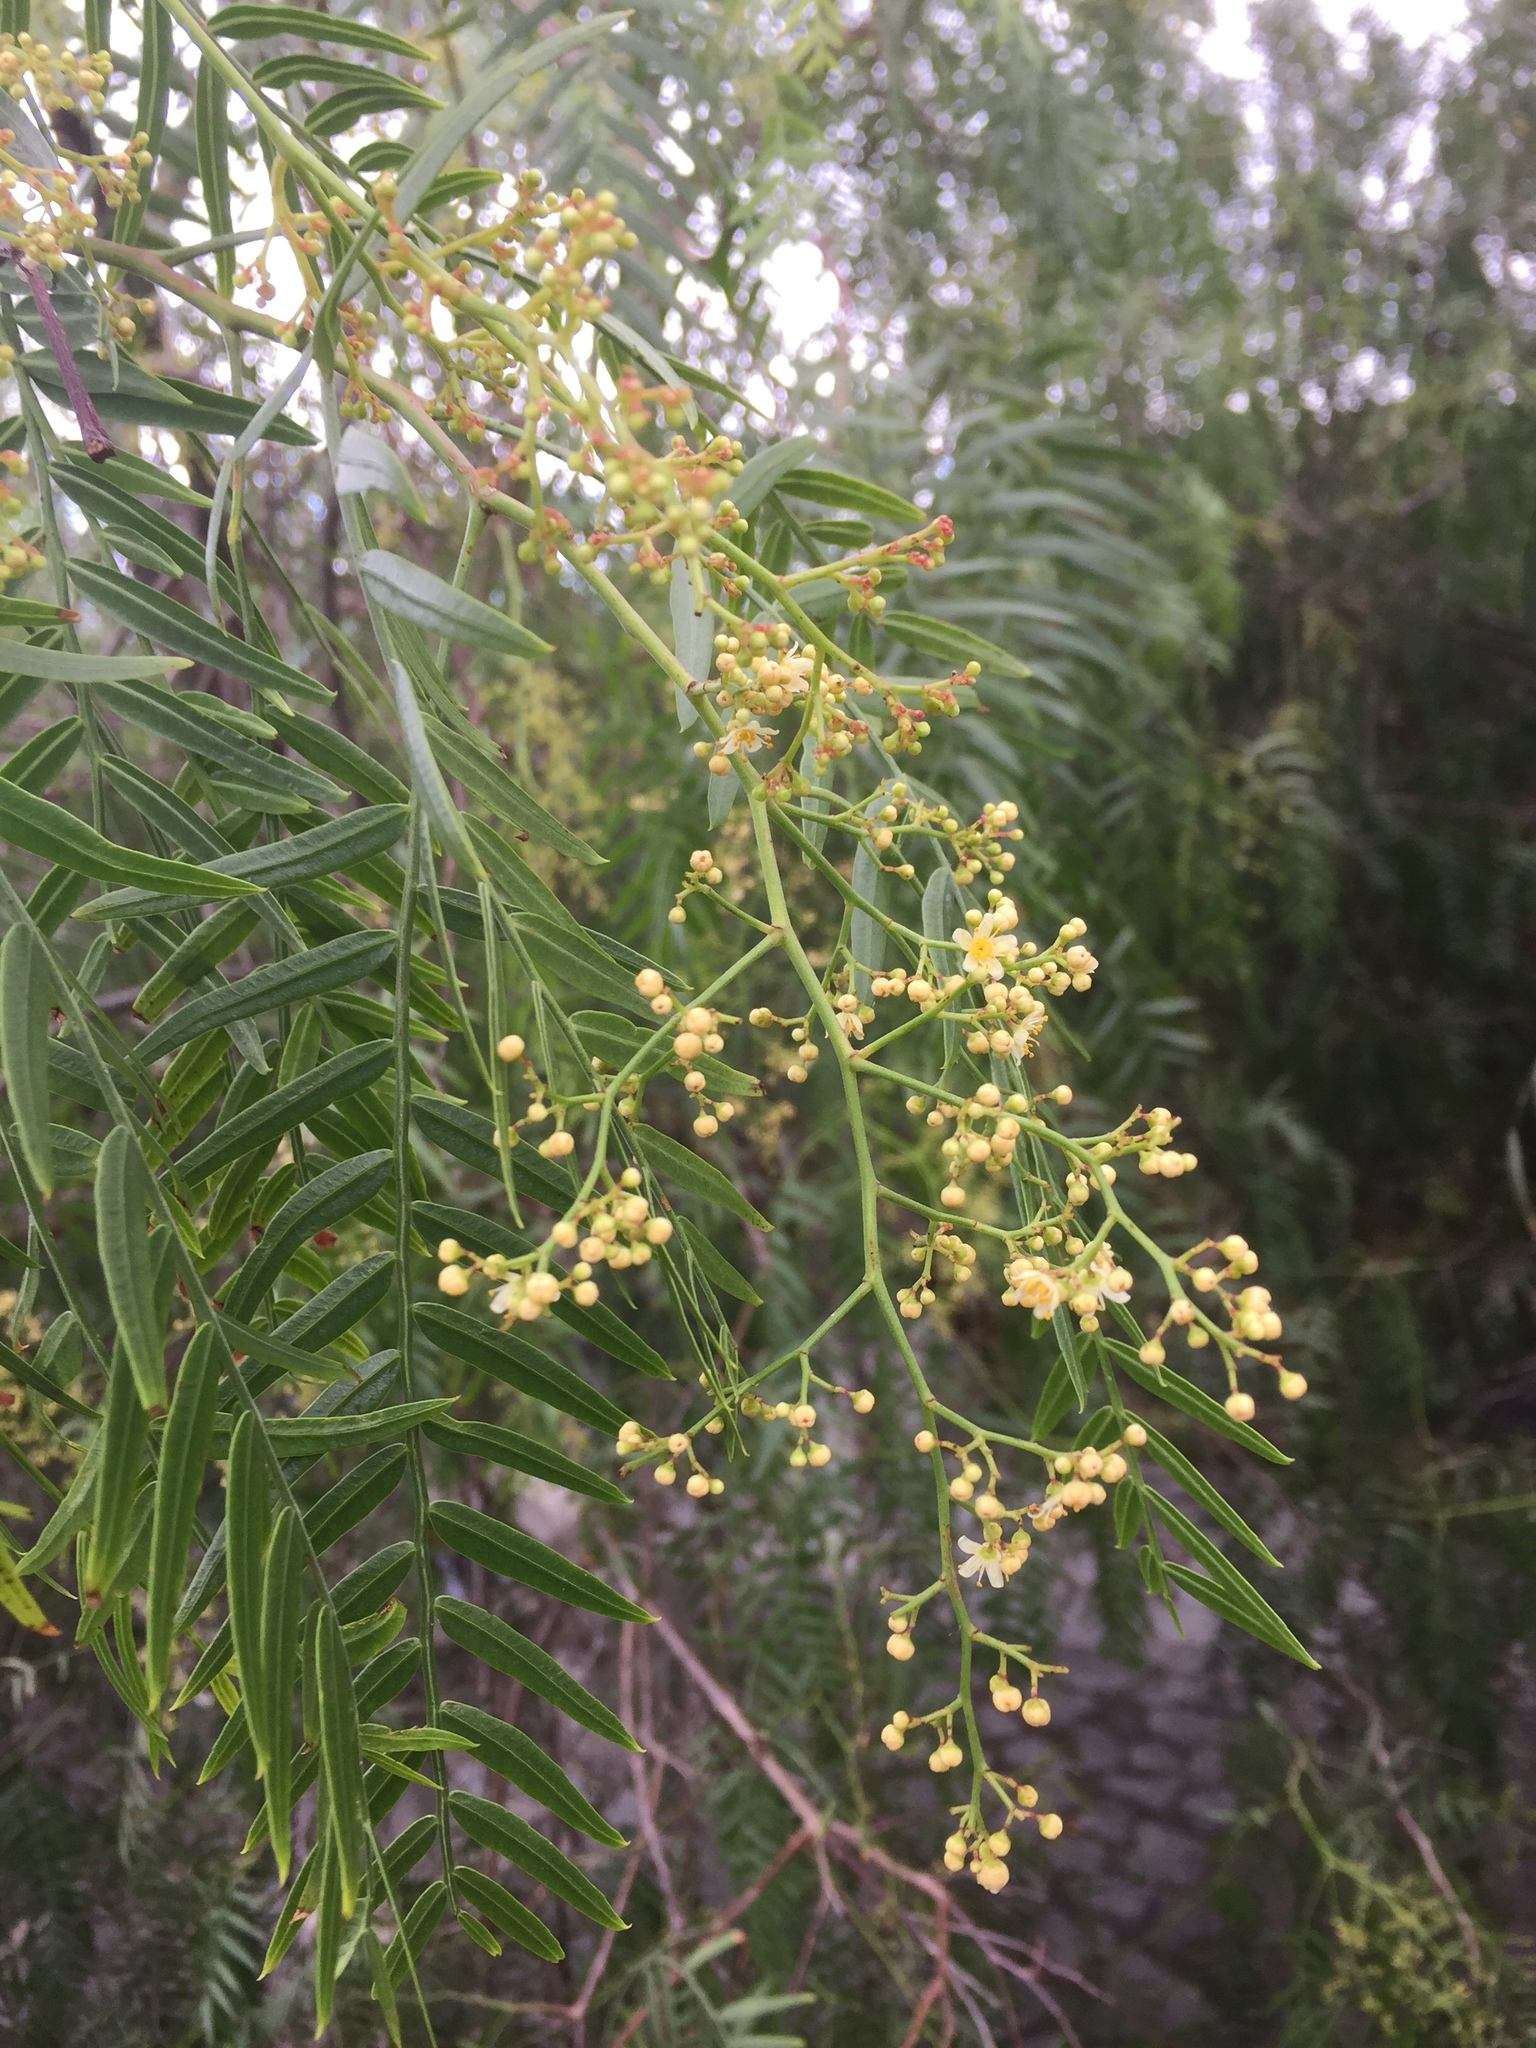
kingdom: Plantae
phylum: Tracheophyta
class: Magnoliopsida
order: Sapindales
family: Anacardiaceae
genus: Schinus
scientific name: Schinus molle
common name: Peruvian peppertree
